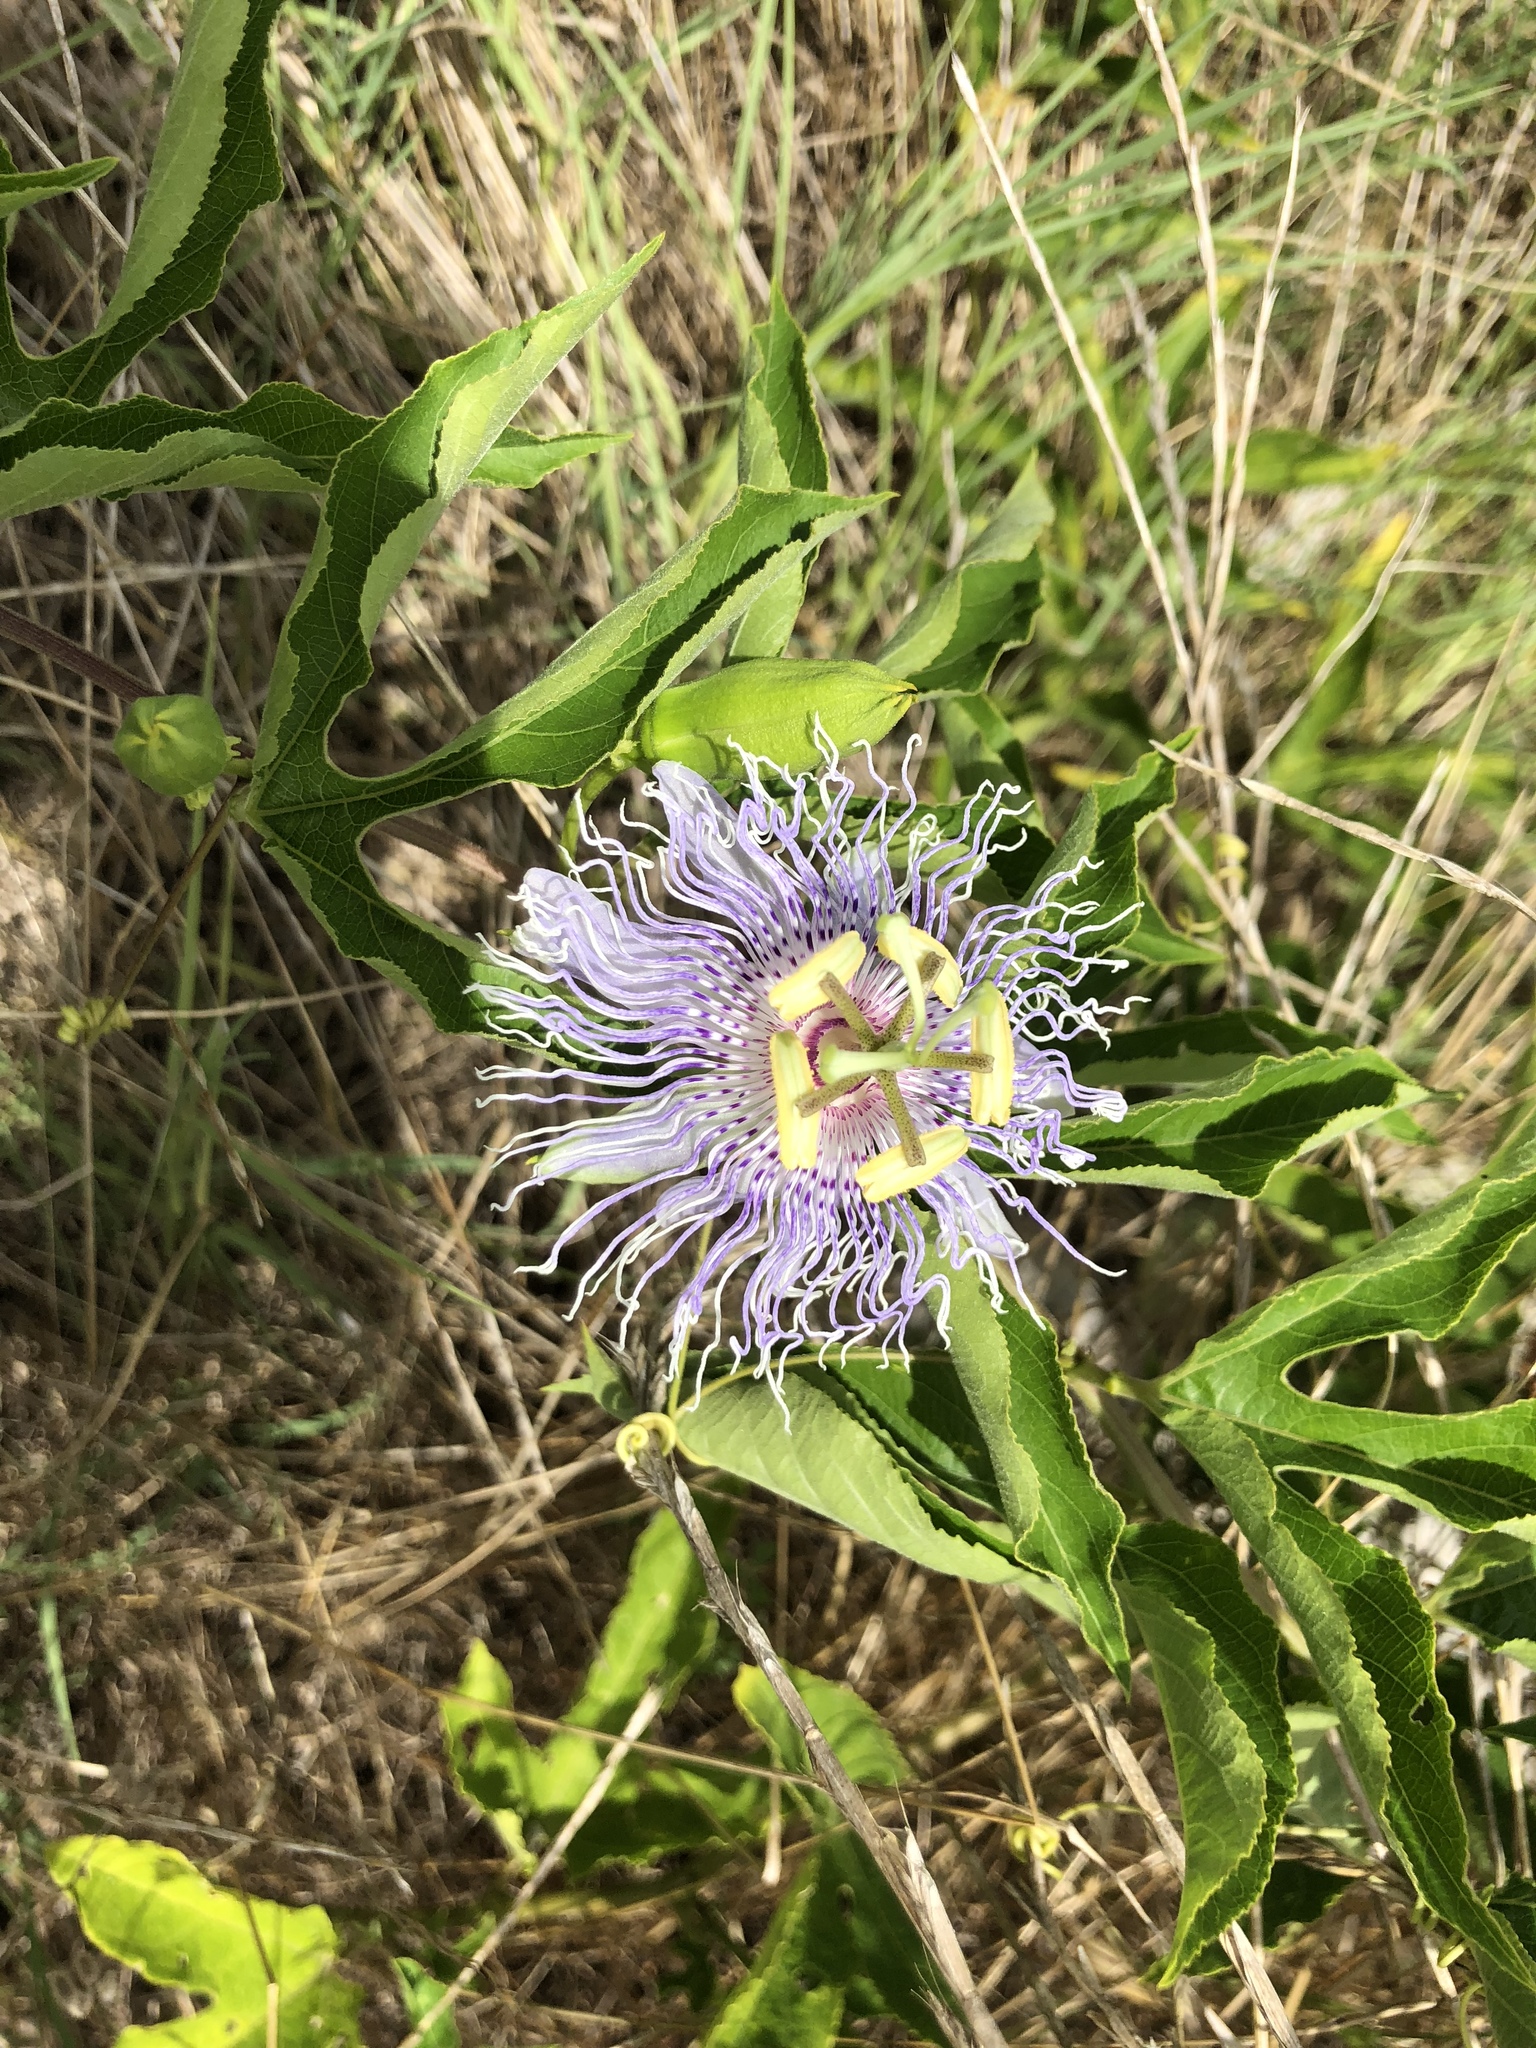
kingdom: Plantae
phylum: Tracheophyta
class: Magnoliopsida
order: Malpighiales
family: Passifloraceae
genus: Passiflora
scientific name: Passiflora incarnata
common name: Apricot-vine
